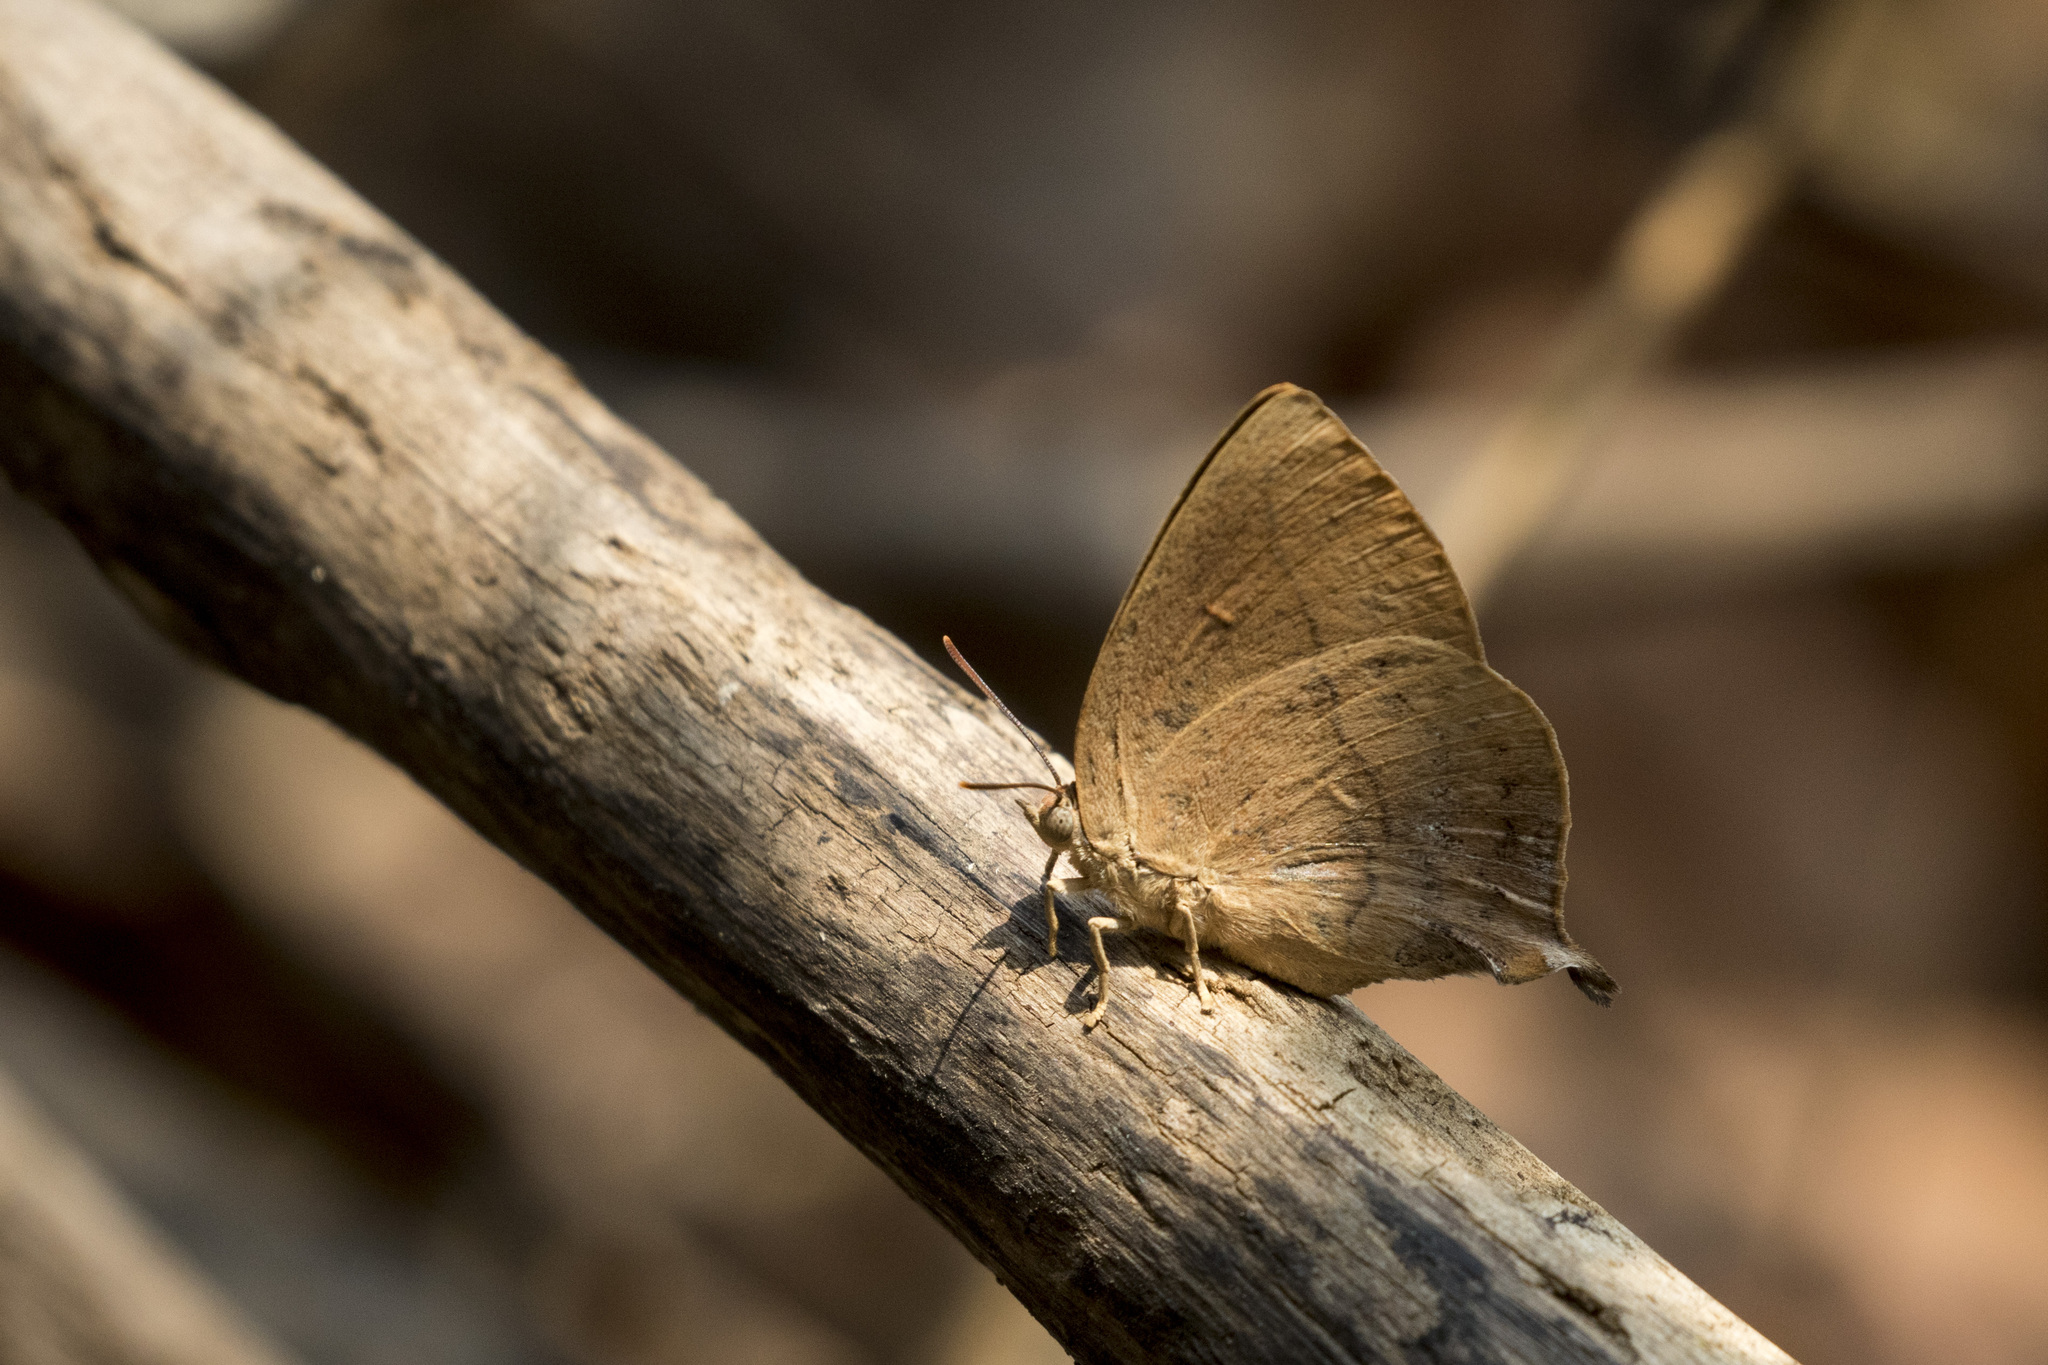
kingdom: Animalia
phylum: Arthropoda
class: Insecta
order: Lepidoptera
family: Lycaenidae
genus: Amblypodia
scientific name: Amblypodia anita
